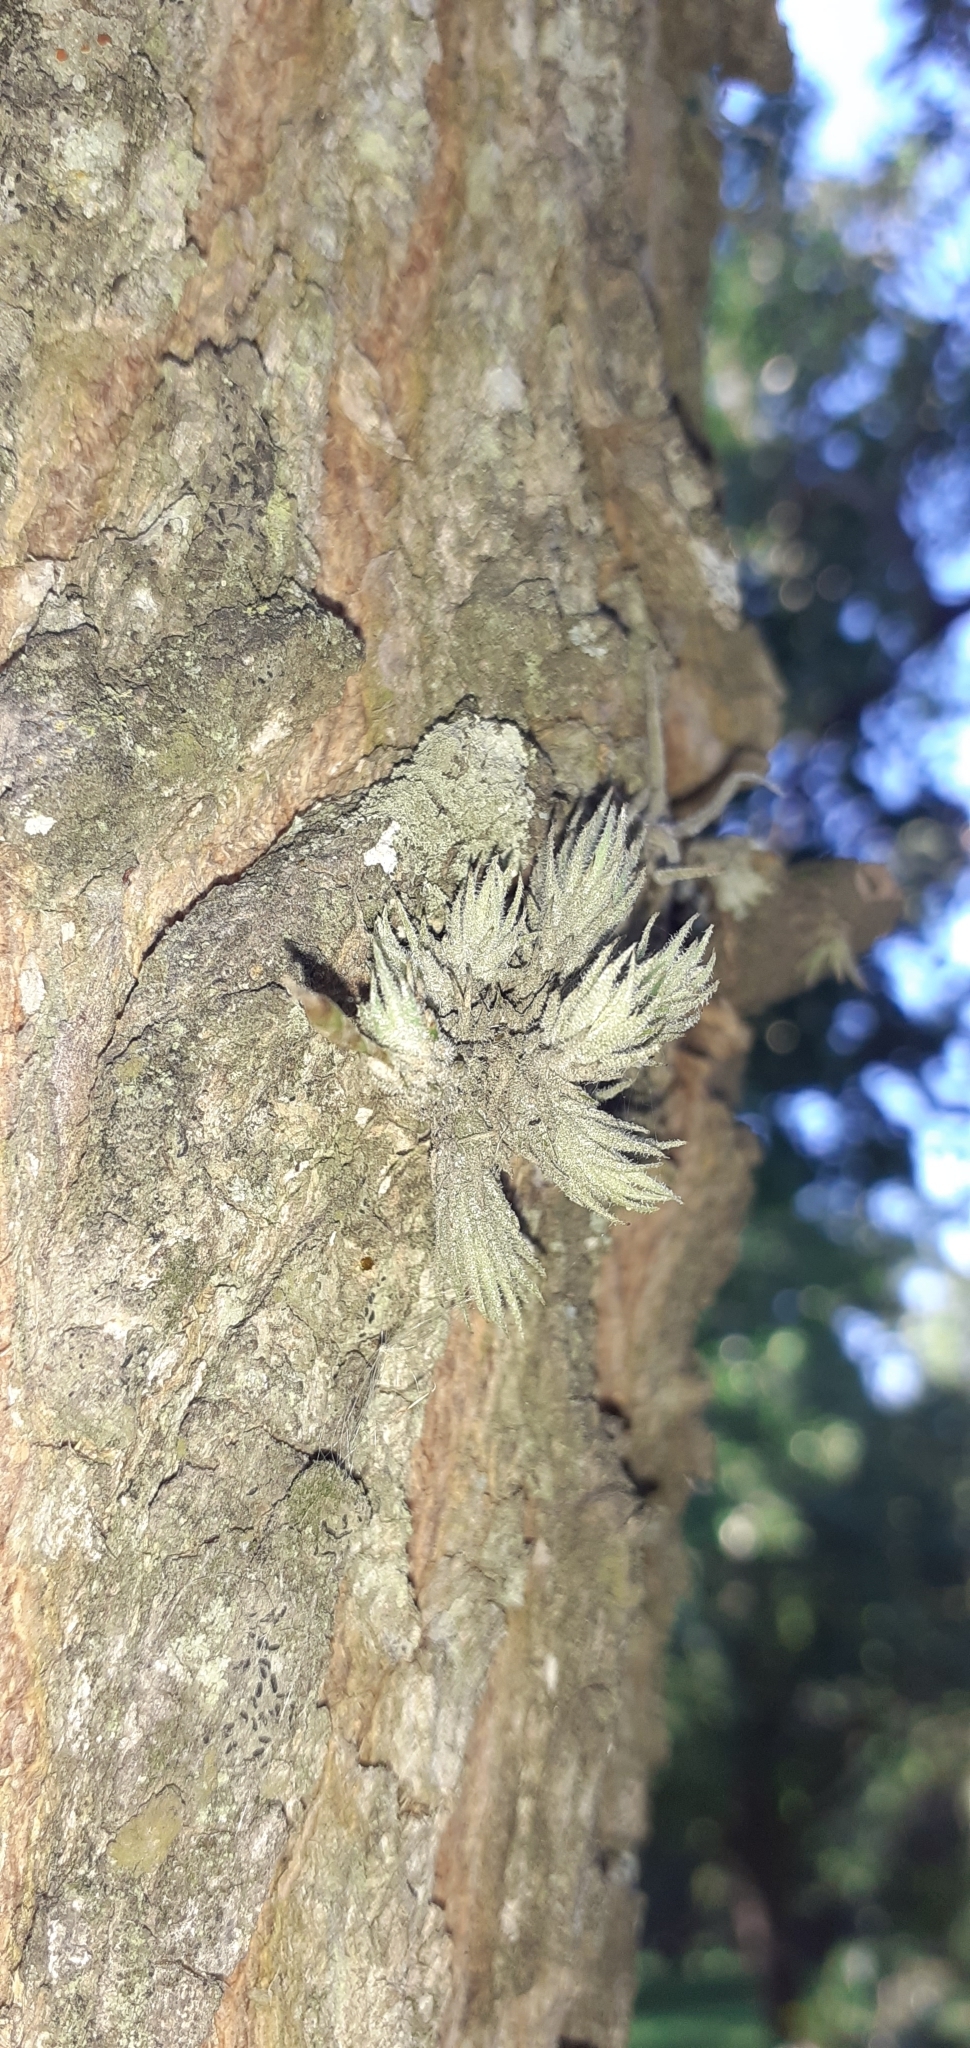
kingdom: Plantae
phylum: Tracheophyta
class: Liliopsida
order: Poales
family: Bromeliaceae
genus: Tillandsia
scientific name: Tillandsia tricholepis
